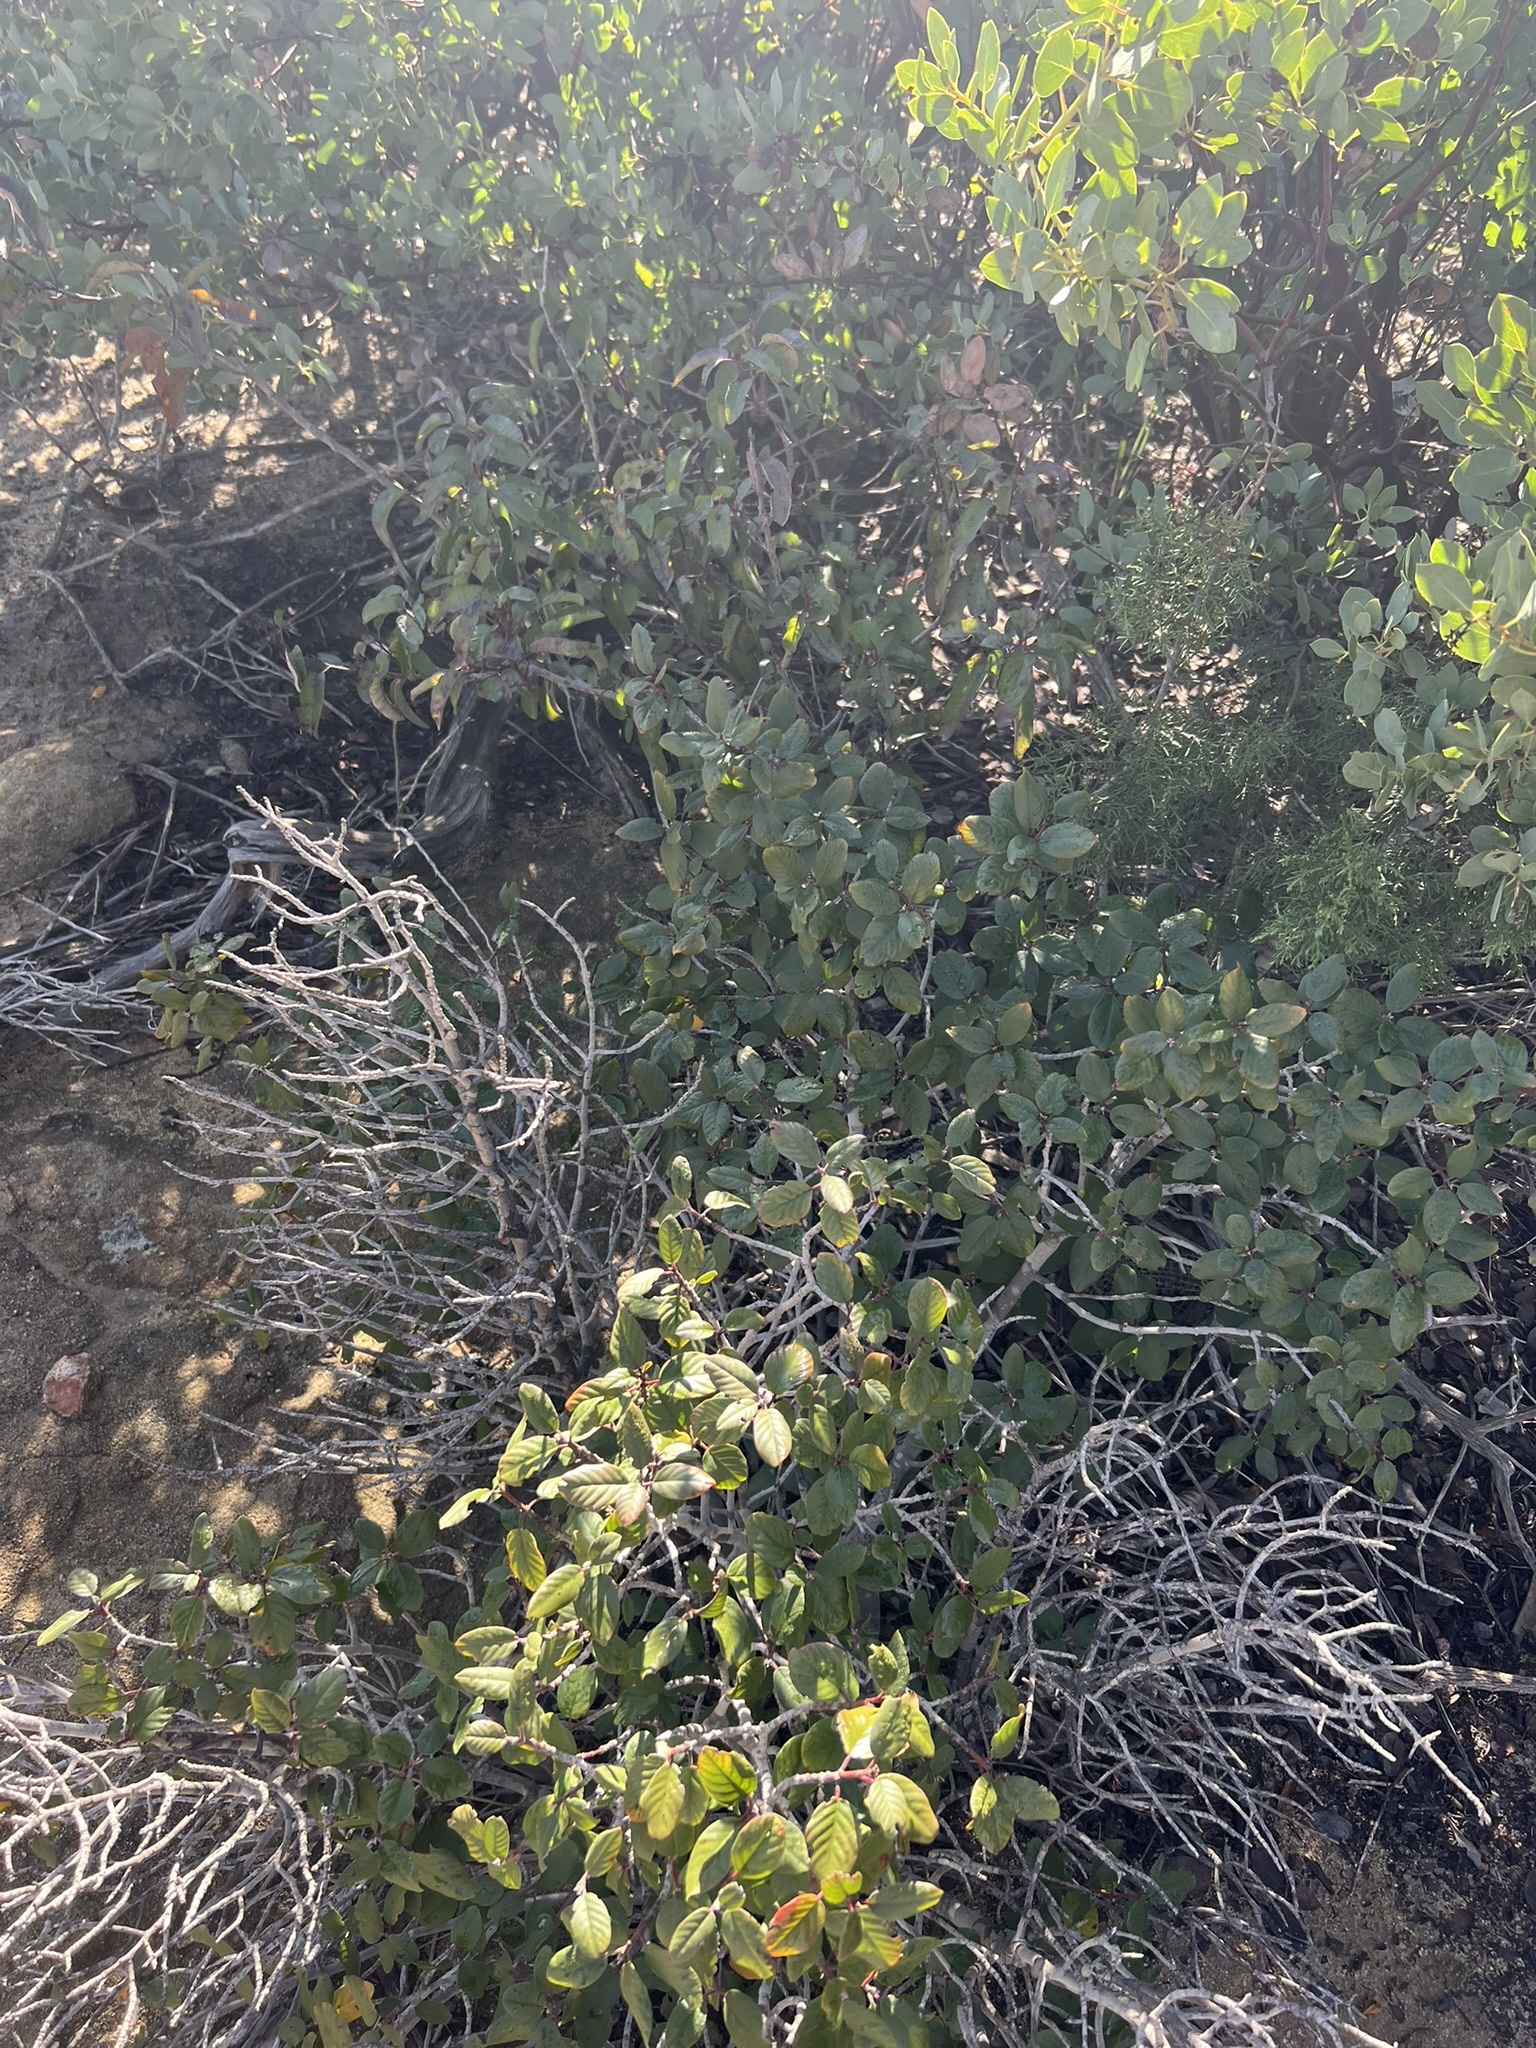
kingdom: Plantae
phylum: Tracheophyta
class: Magnoliopsida
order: Rosales
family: Rhamnaceae
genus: Frangula
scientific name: Frangula californica
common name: California buckthorn
